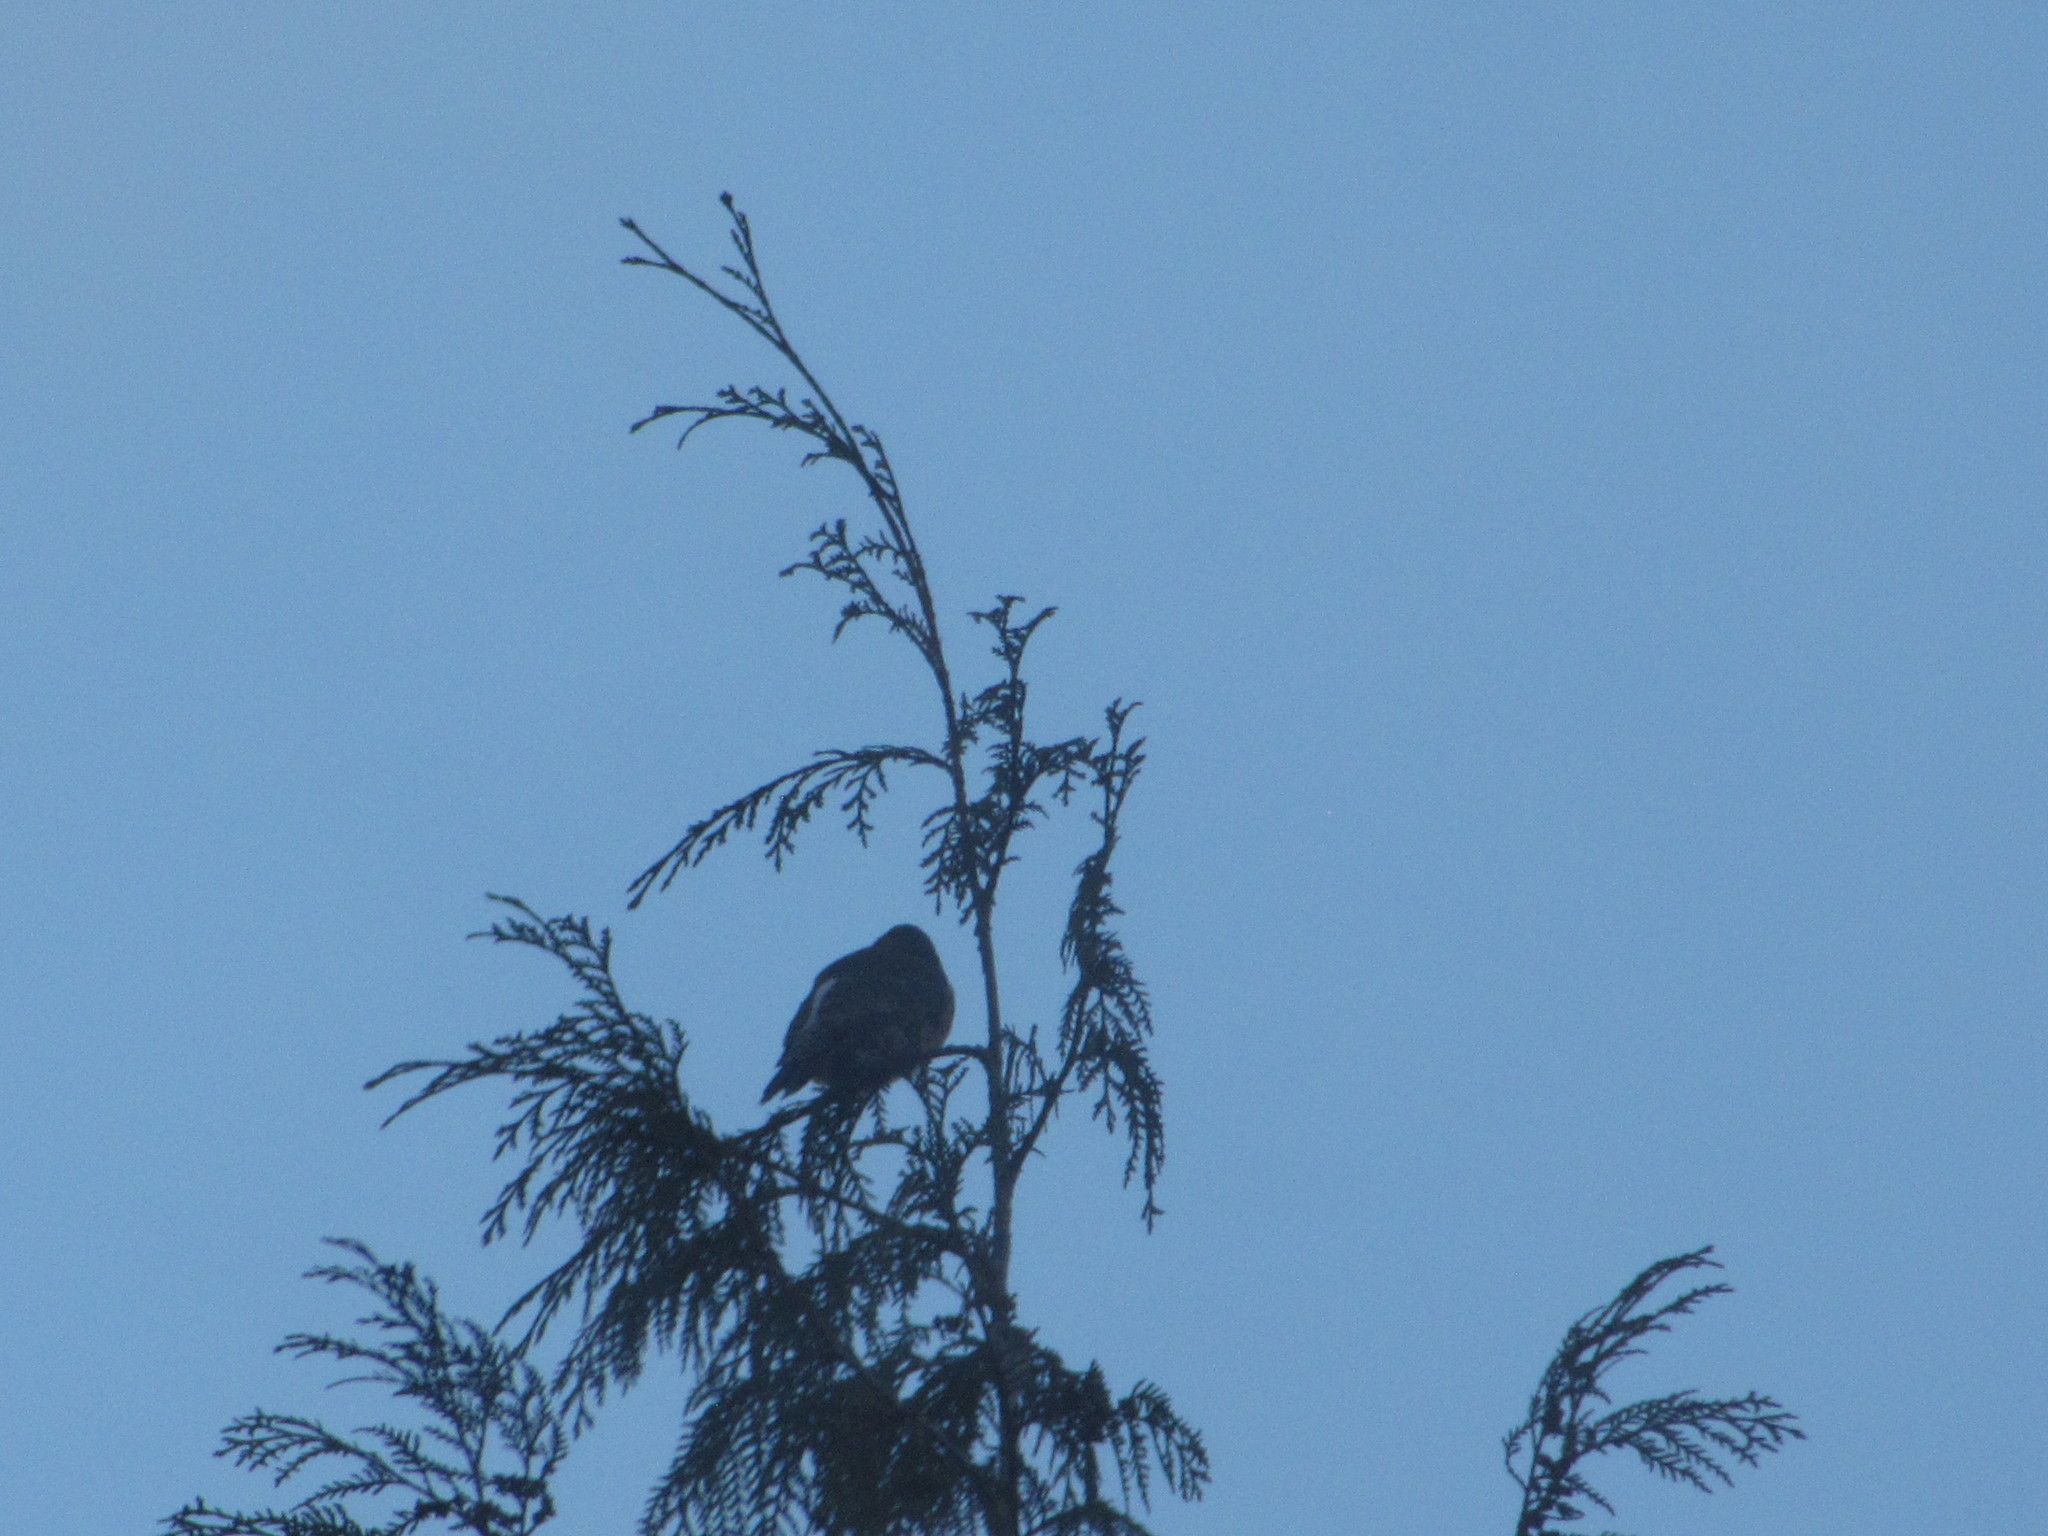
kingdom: Animalia
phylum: Chordata
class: Aves
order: Piciformes
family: Picidae
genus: Colaptes
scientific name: Colaptes auratus
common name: Northern flicker
